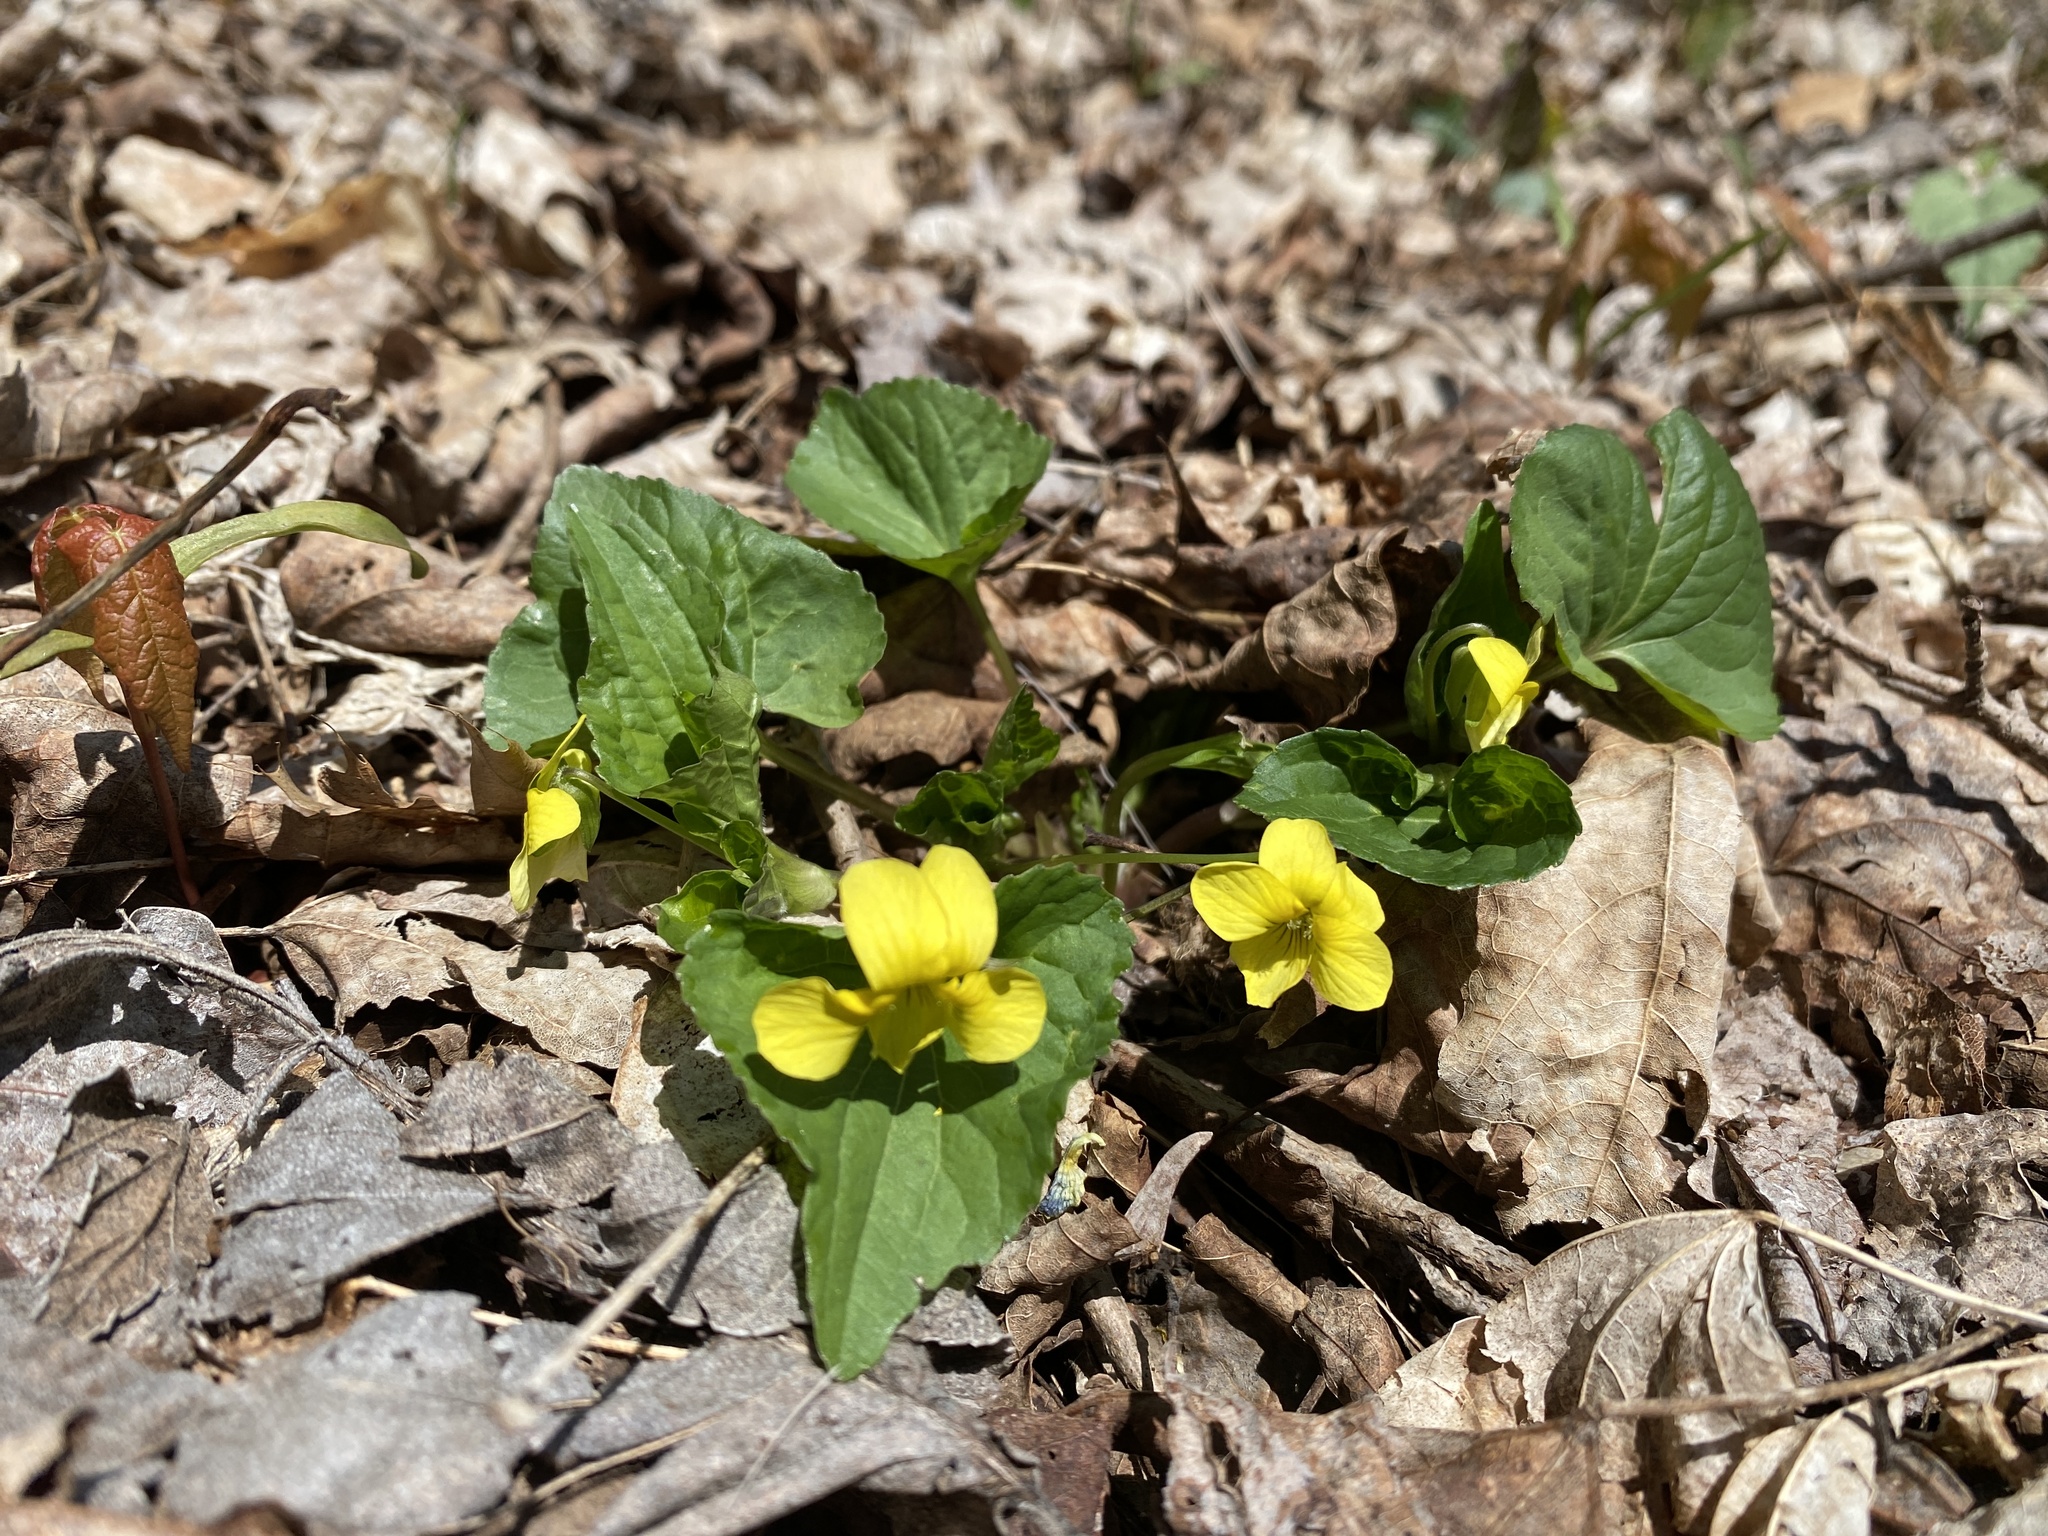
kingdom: Plantae
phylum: Tracheophyta
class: Magnoliopsida
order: Malpighiales
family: Violaceae
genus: Viola
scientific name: Viola eriocarpa
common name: Smooth yellow violet
